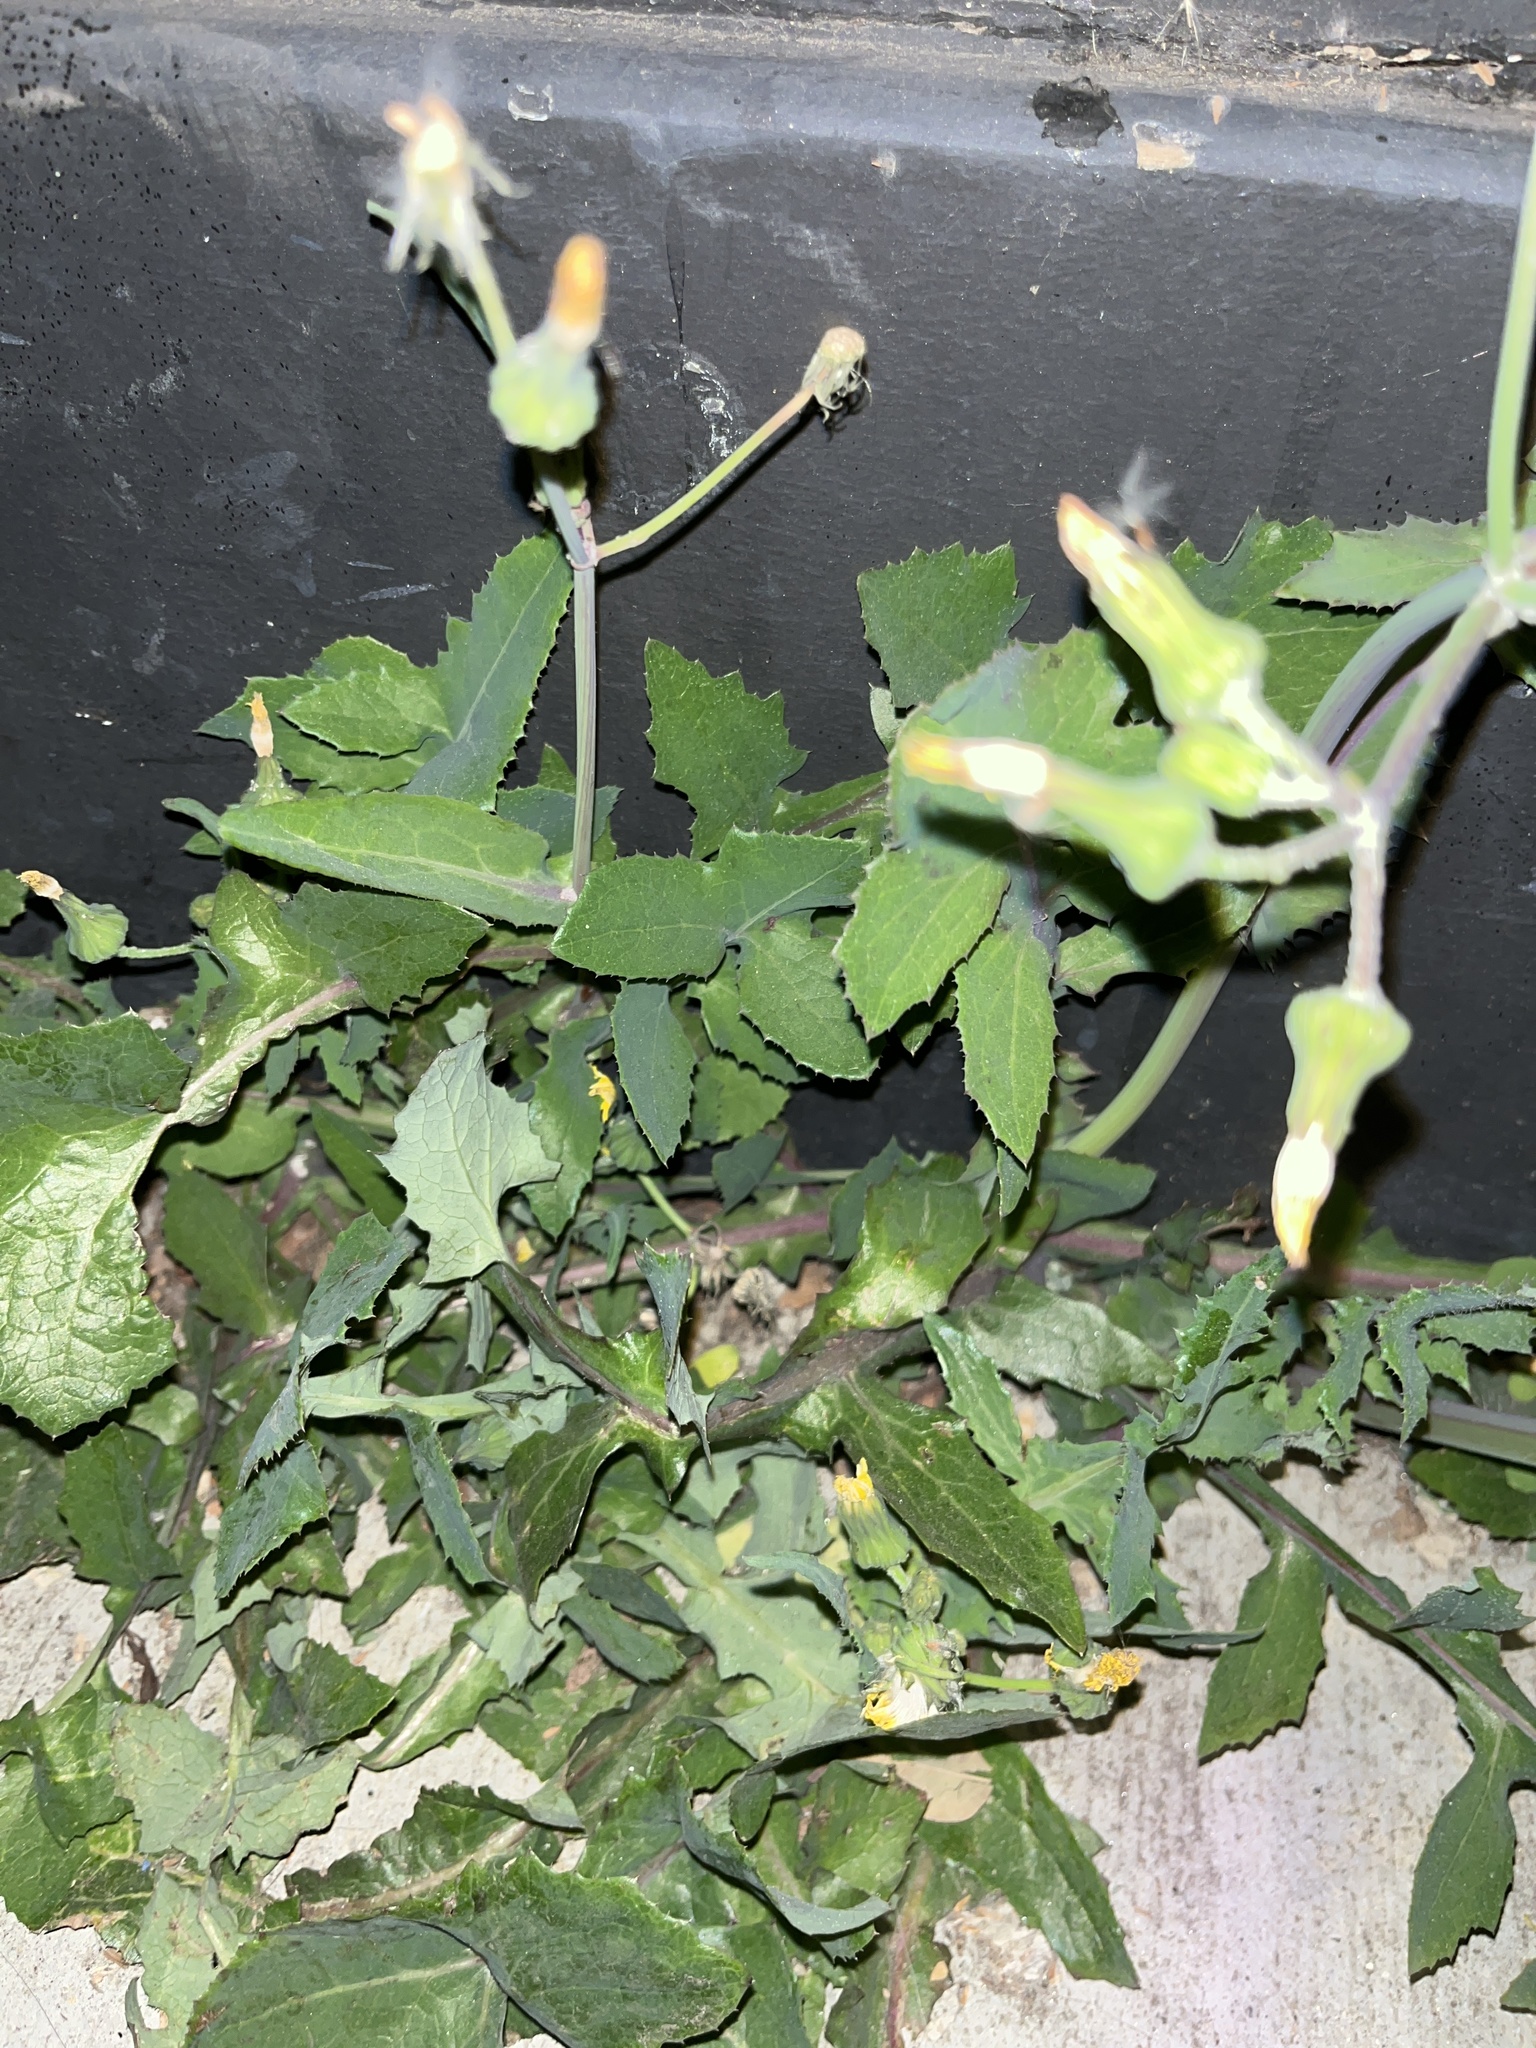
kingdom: Plantae
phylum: Tracheophyta
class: Magnoliopsida
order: Asterales
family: Asteraceae
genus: Sonchus
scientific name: Sonchus oleraceus
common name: Common sowthistle
